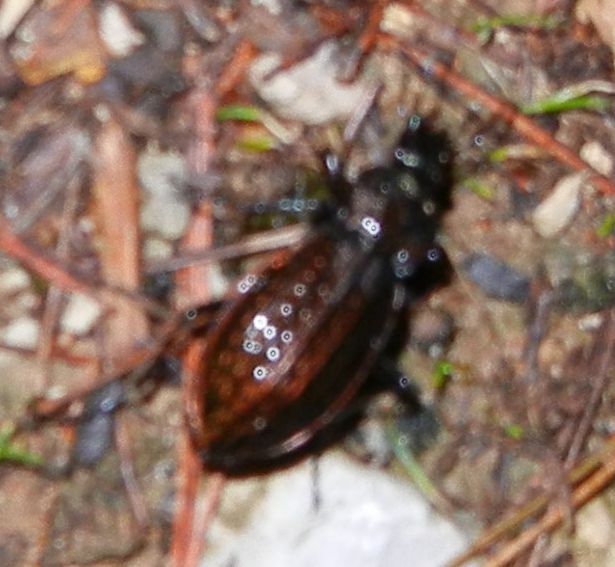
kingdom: Animalia
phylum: Arthropoda
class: Insecta
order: Coleoptera
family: Carabidae
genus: Carabus
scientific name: Carabus rugosus
